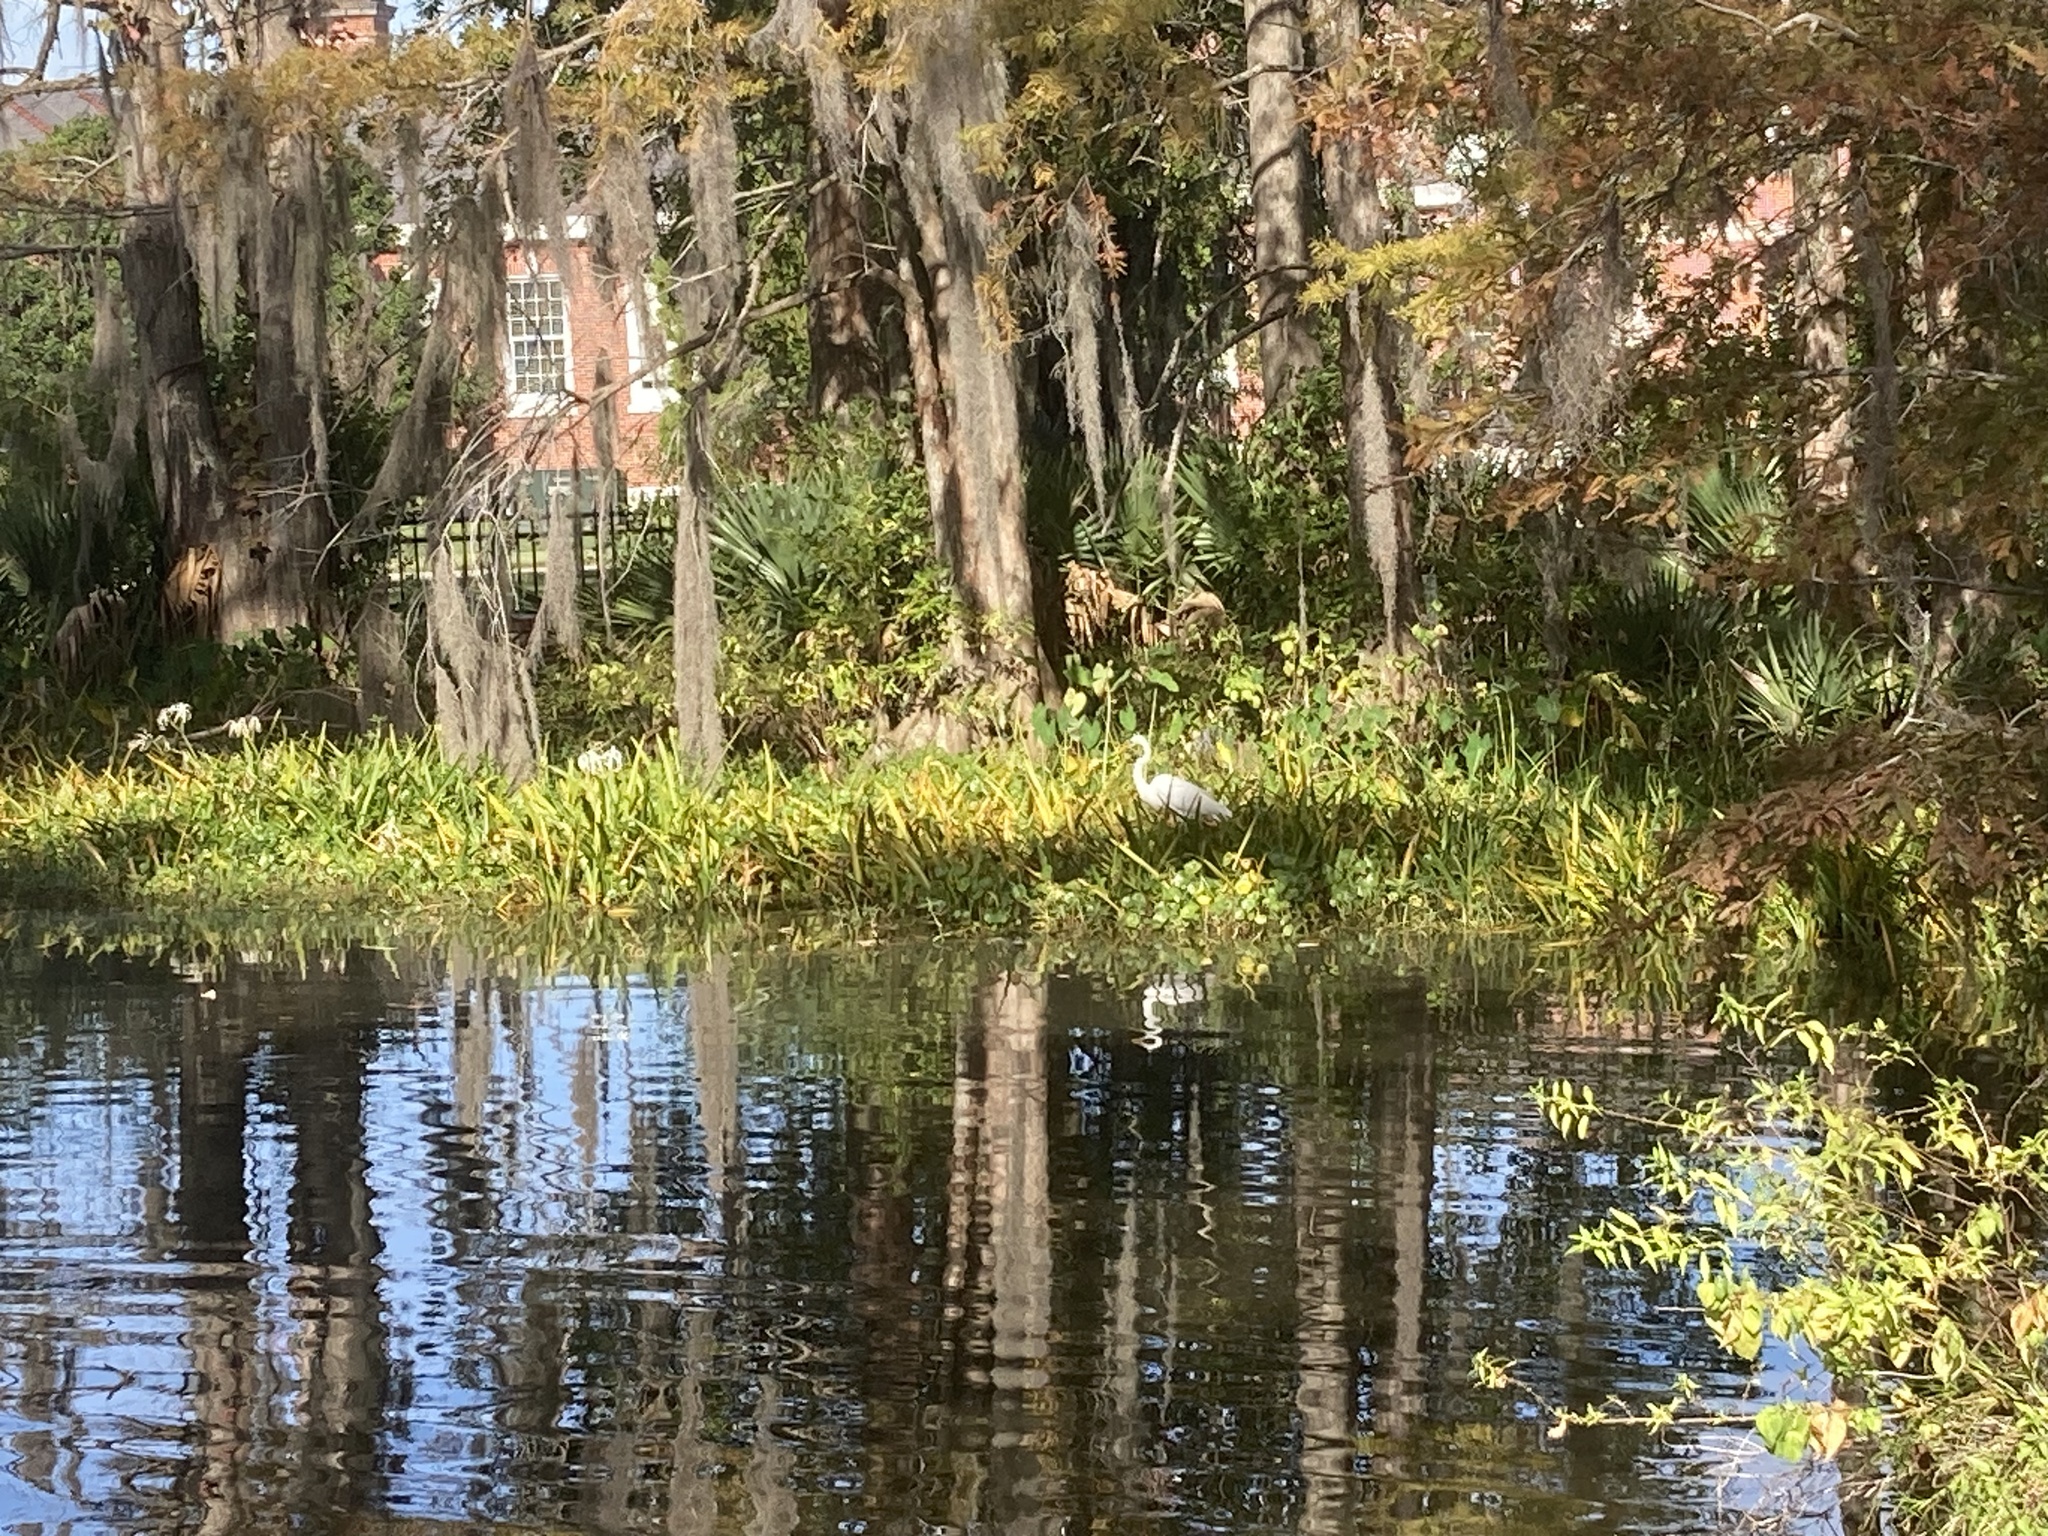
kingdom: Animalia
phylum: Chordata
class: Aves
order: Pelecaniformes
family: Ardeidae
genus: Ardea
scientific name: Ardea alba
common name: Great egret
